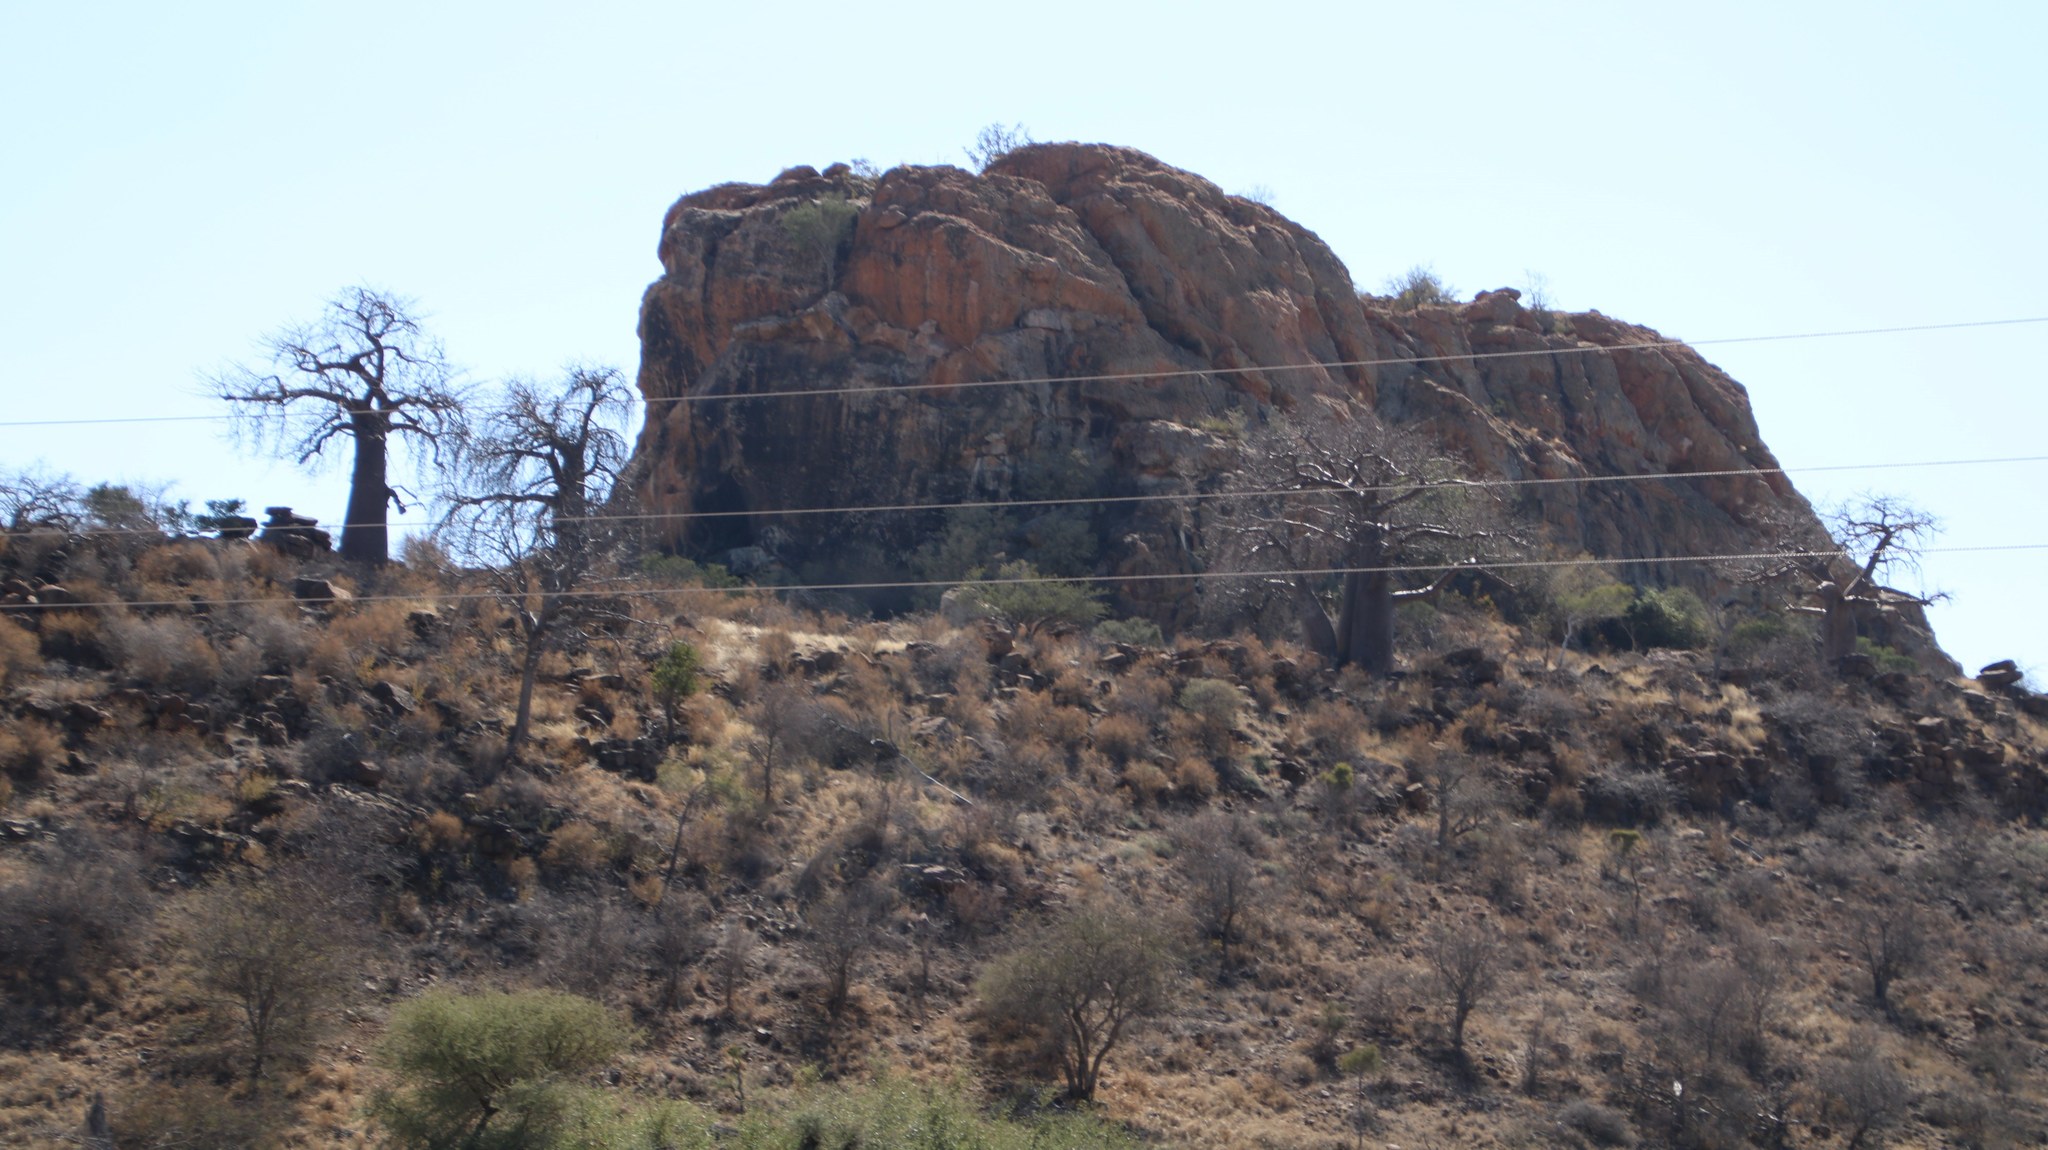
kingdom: Plantae
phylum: Tracheophyta
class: Magnoliopsida
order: Malvales
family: Malvaceae
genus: Adansonia
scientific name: Adansonia digitata
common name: Dead-rat-tree
